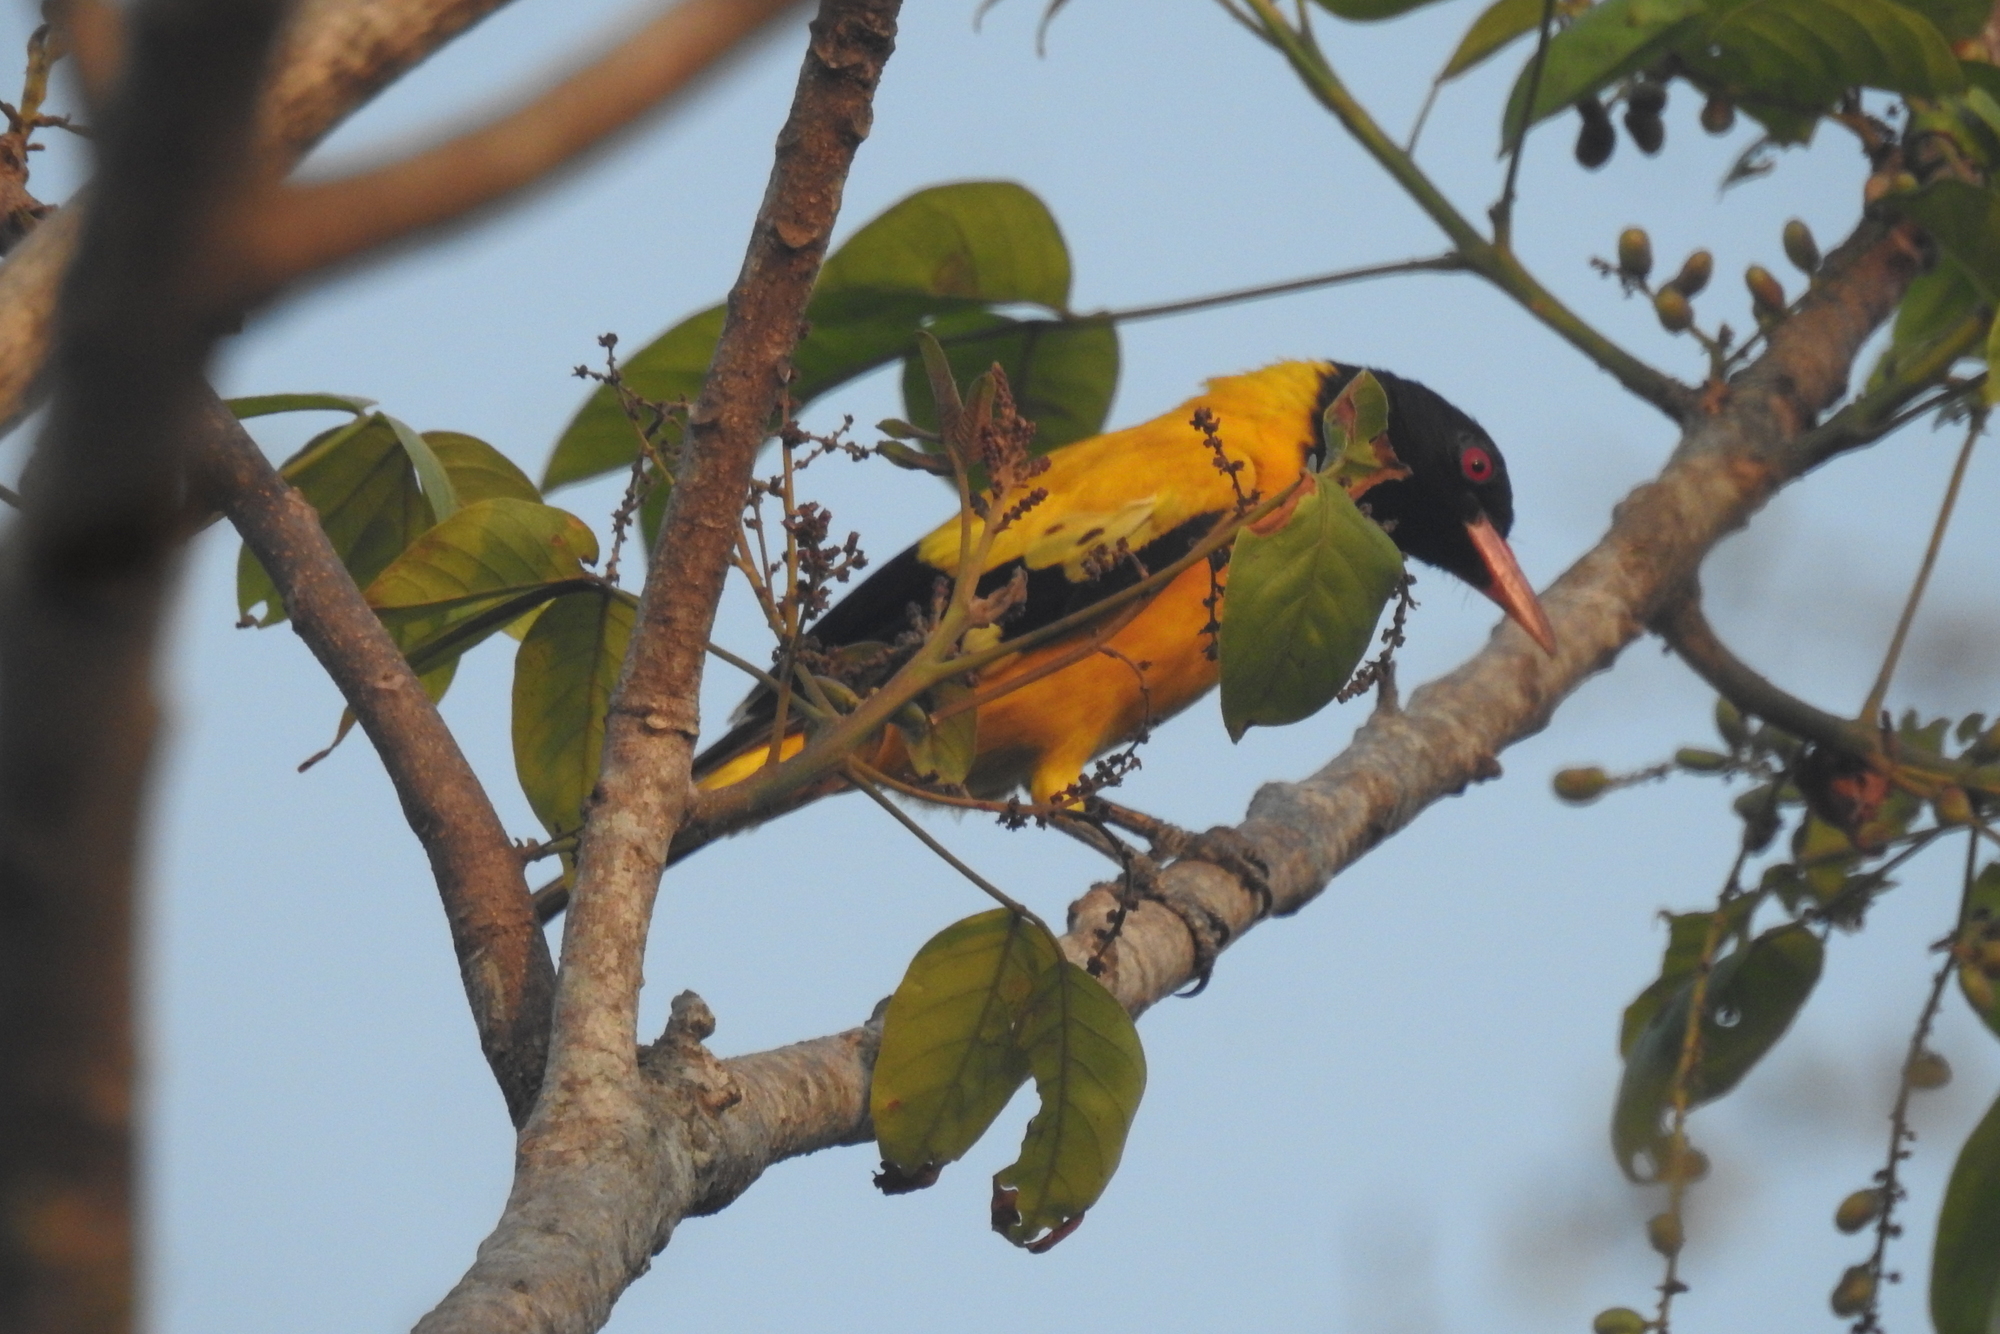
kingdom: Animalia
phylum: Chordata
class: Aves
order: Passeriformes
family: Oriolidae
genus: Oriolus
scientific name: Oriolus xanthornus
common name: Black-hooded oriole
